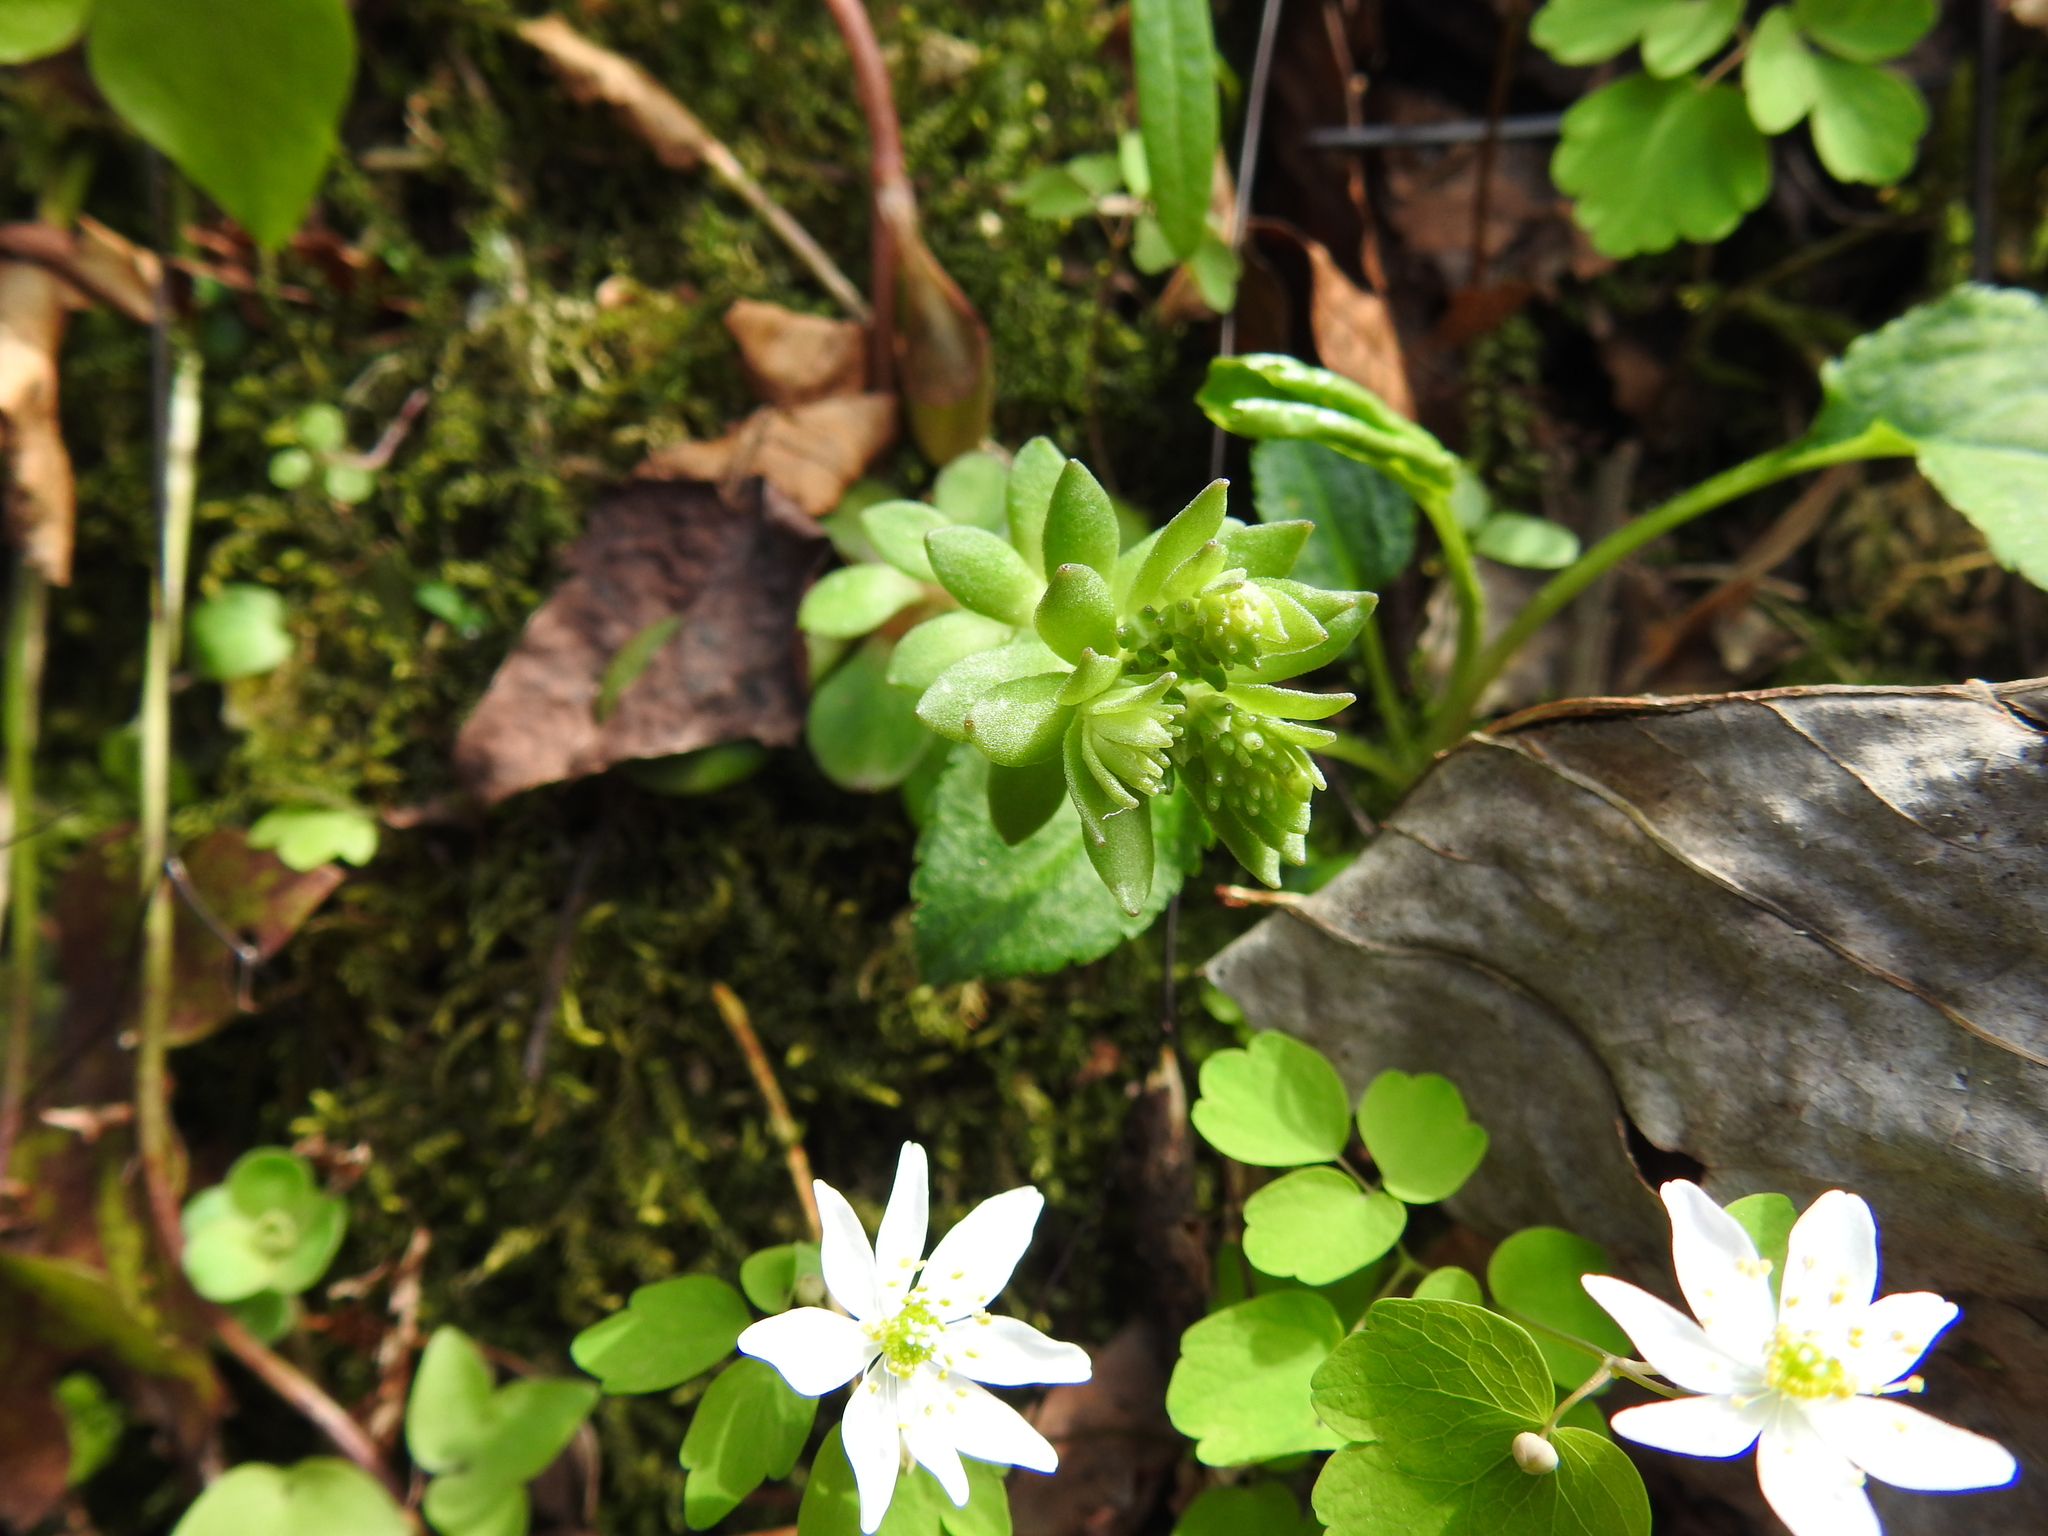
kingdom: Plantae
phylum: Tracheophyta
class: Magnoliopsida
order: Saxifragales
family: Crassulaceae
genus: Sedum
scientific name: Sedum ternatum
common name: Wild stonecrop
